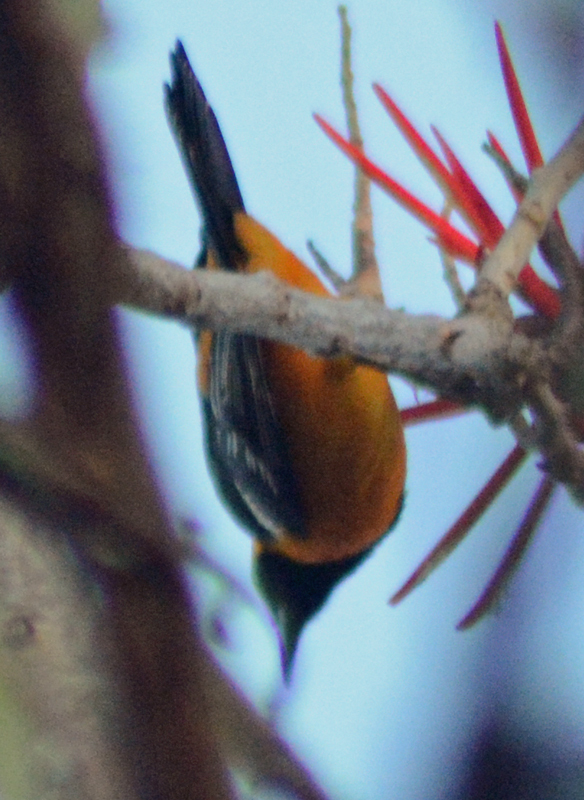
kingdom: Animalia
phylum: Chordata
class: Aves
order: Passeriformes
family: Icteridae
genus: Icterus
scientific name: Icterus cucullatus
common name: Hooded oriole
